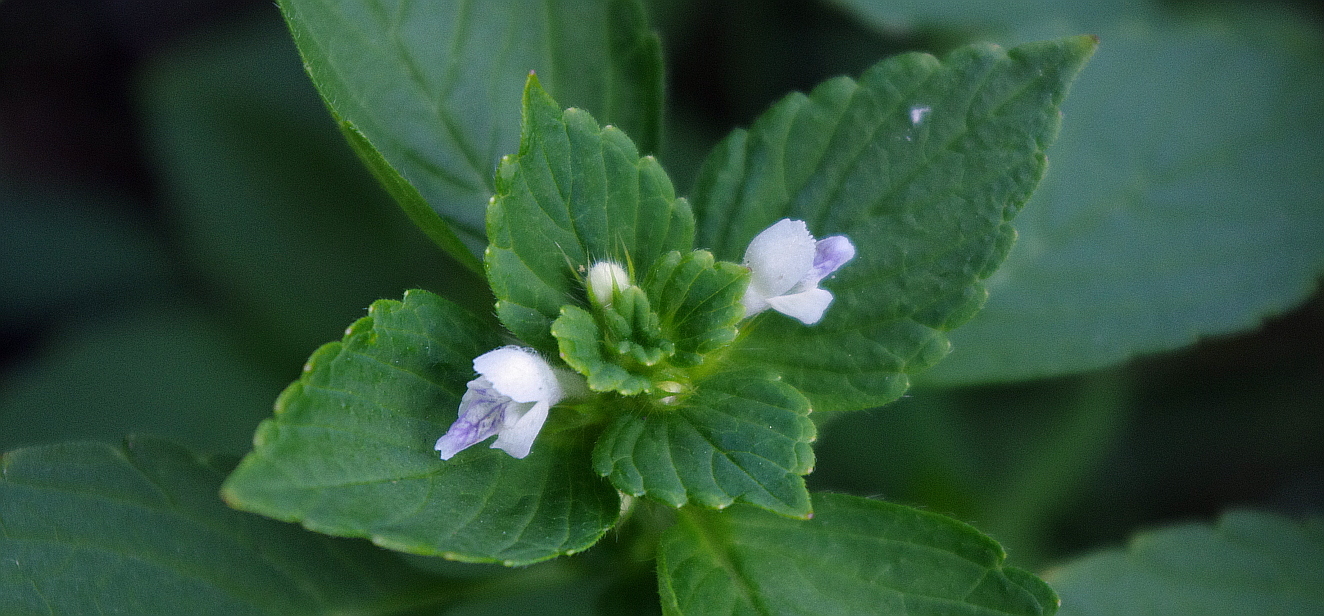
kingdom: Plantae
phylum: Tracheophyta
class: Magnoliopsida
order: Lamiales
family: Lamiaceae
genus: Galeopsis
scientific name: Galeopsis bifida
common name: Bifid hemp-nettle
